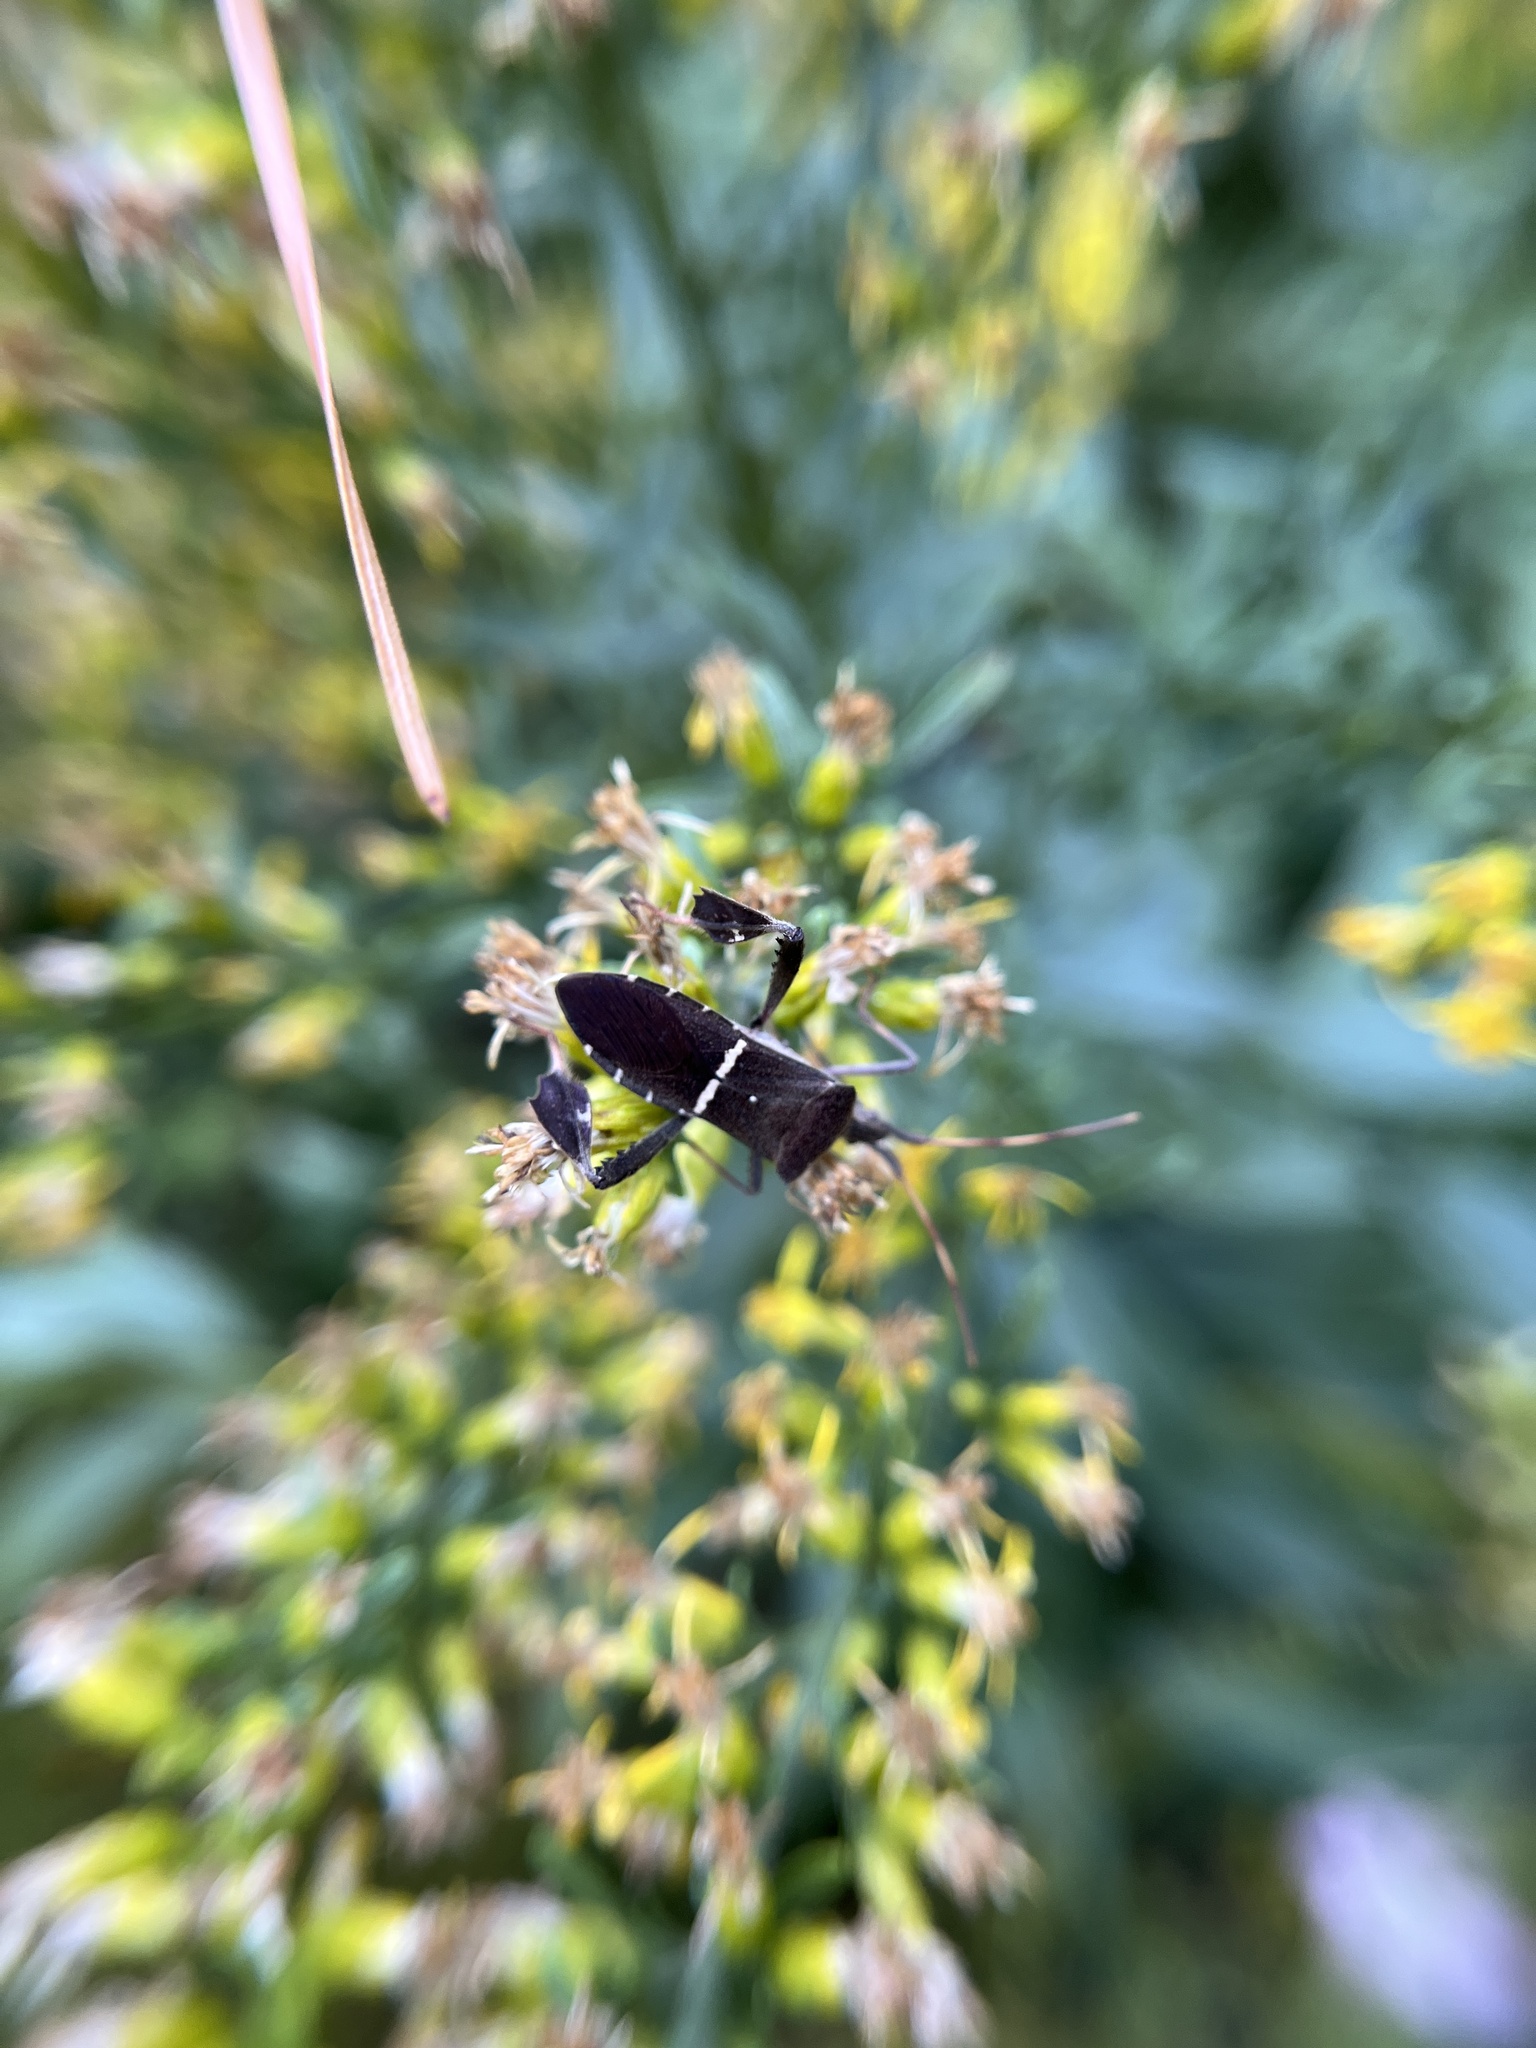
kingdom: Animalia
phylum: Arthropoda
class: Insecta
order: Hemiptera
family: Coreidae
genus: Leptoglossus
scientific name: Leptoglossus phyllopus
